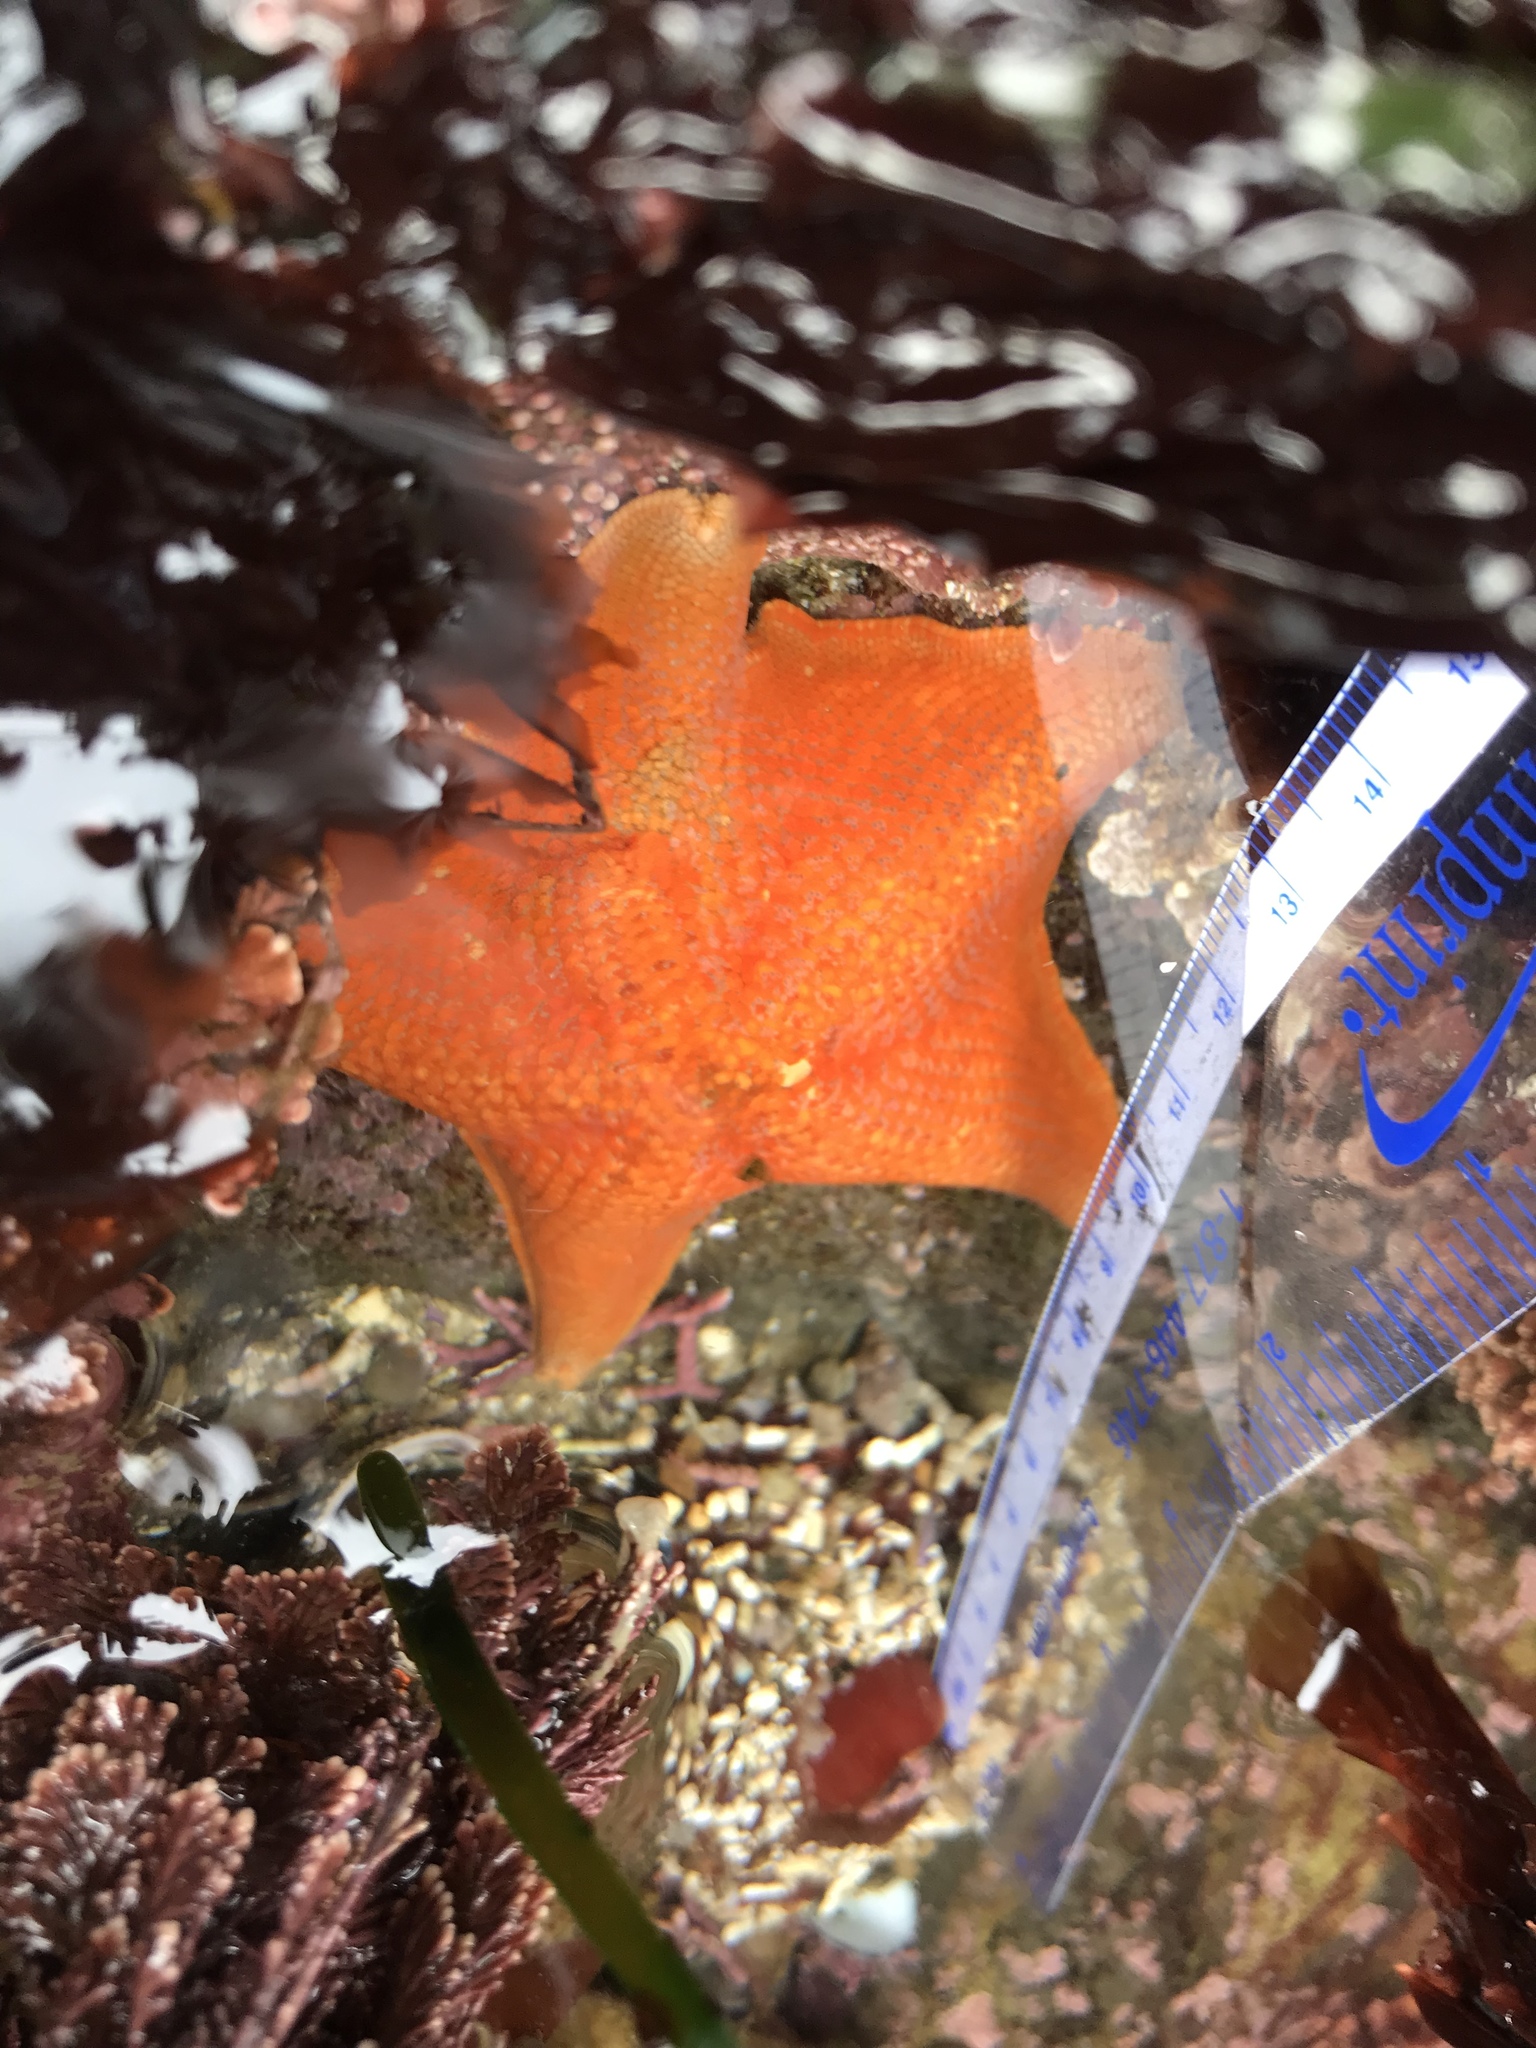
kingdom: Animalia
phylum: Echinodermata
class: Asteroidea
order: Valvatida
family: Asterinidae
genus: Patiria
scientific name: Patiria miniata
